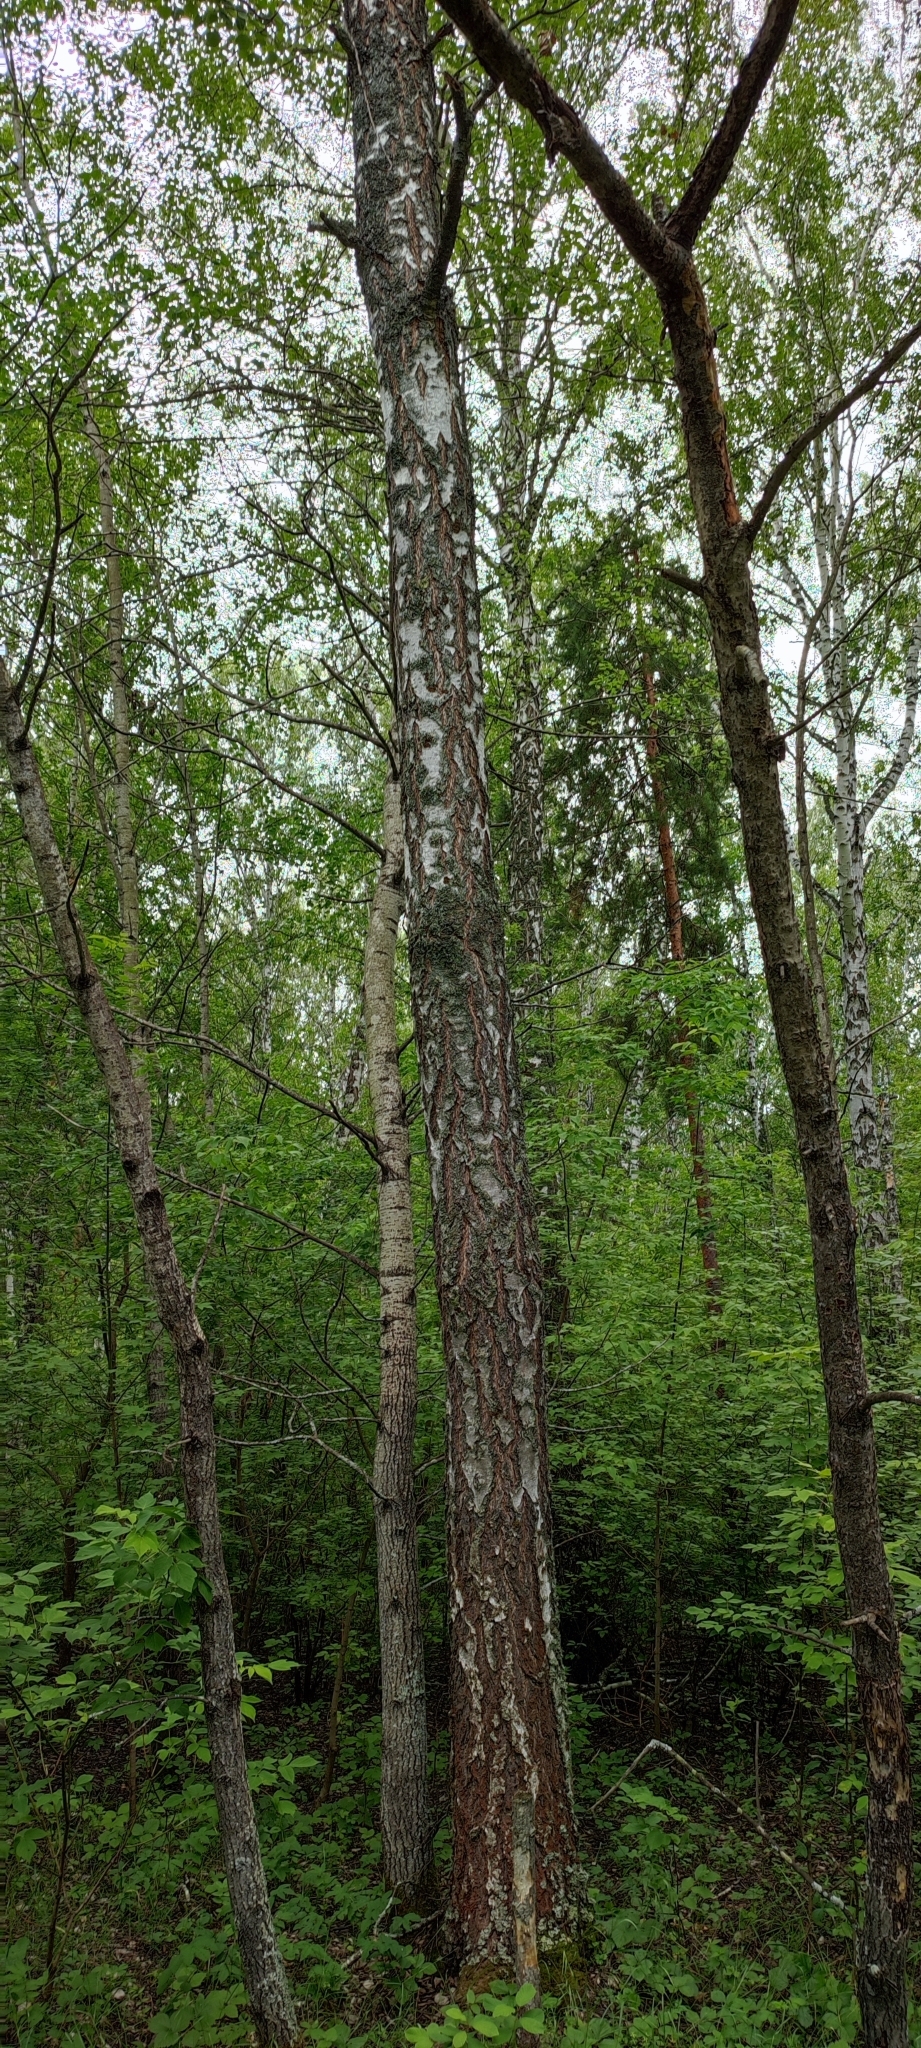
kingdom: Plantae
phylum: Tracheophyta
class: Magnoliopsida
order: Fagales
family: Betulaceae
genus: Betula
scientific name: Betula pendula
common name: Silver birch
